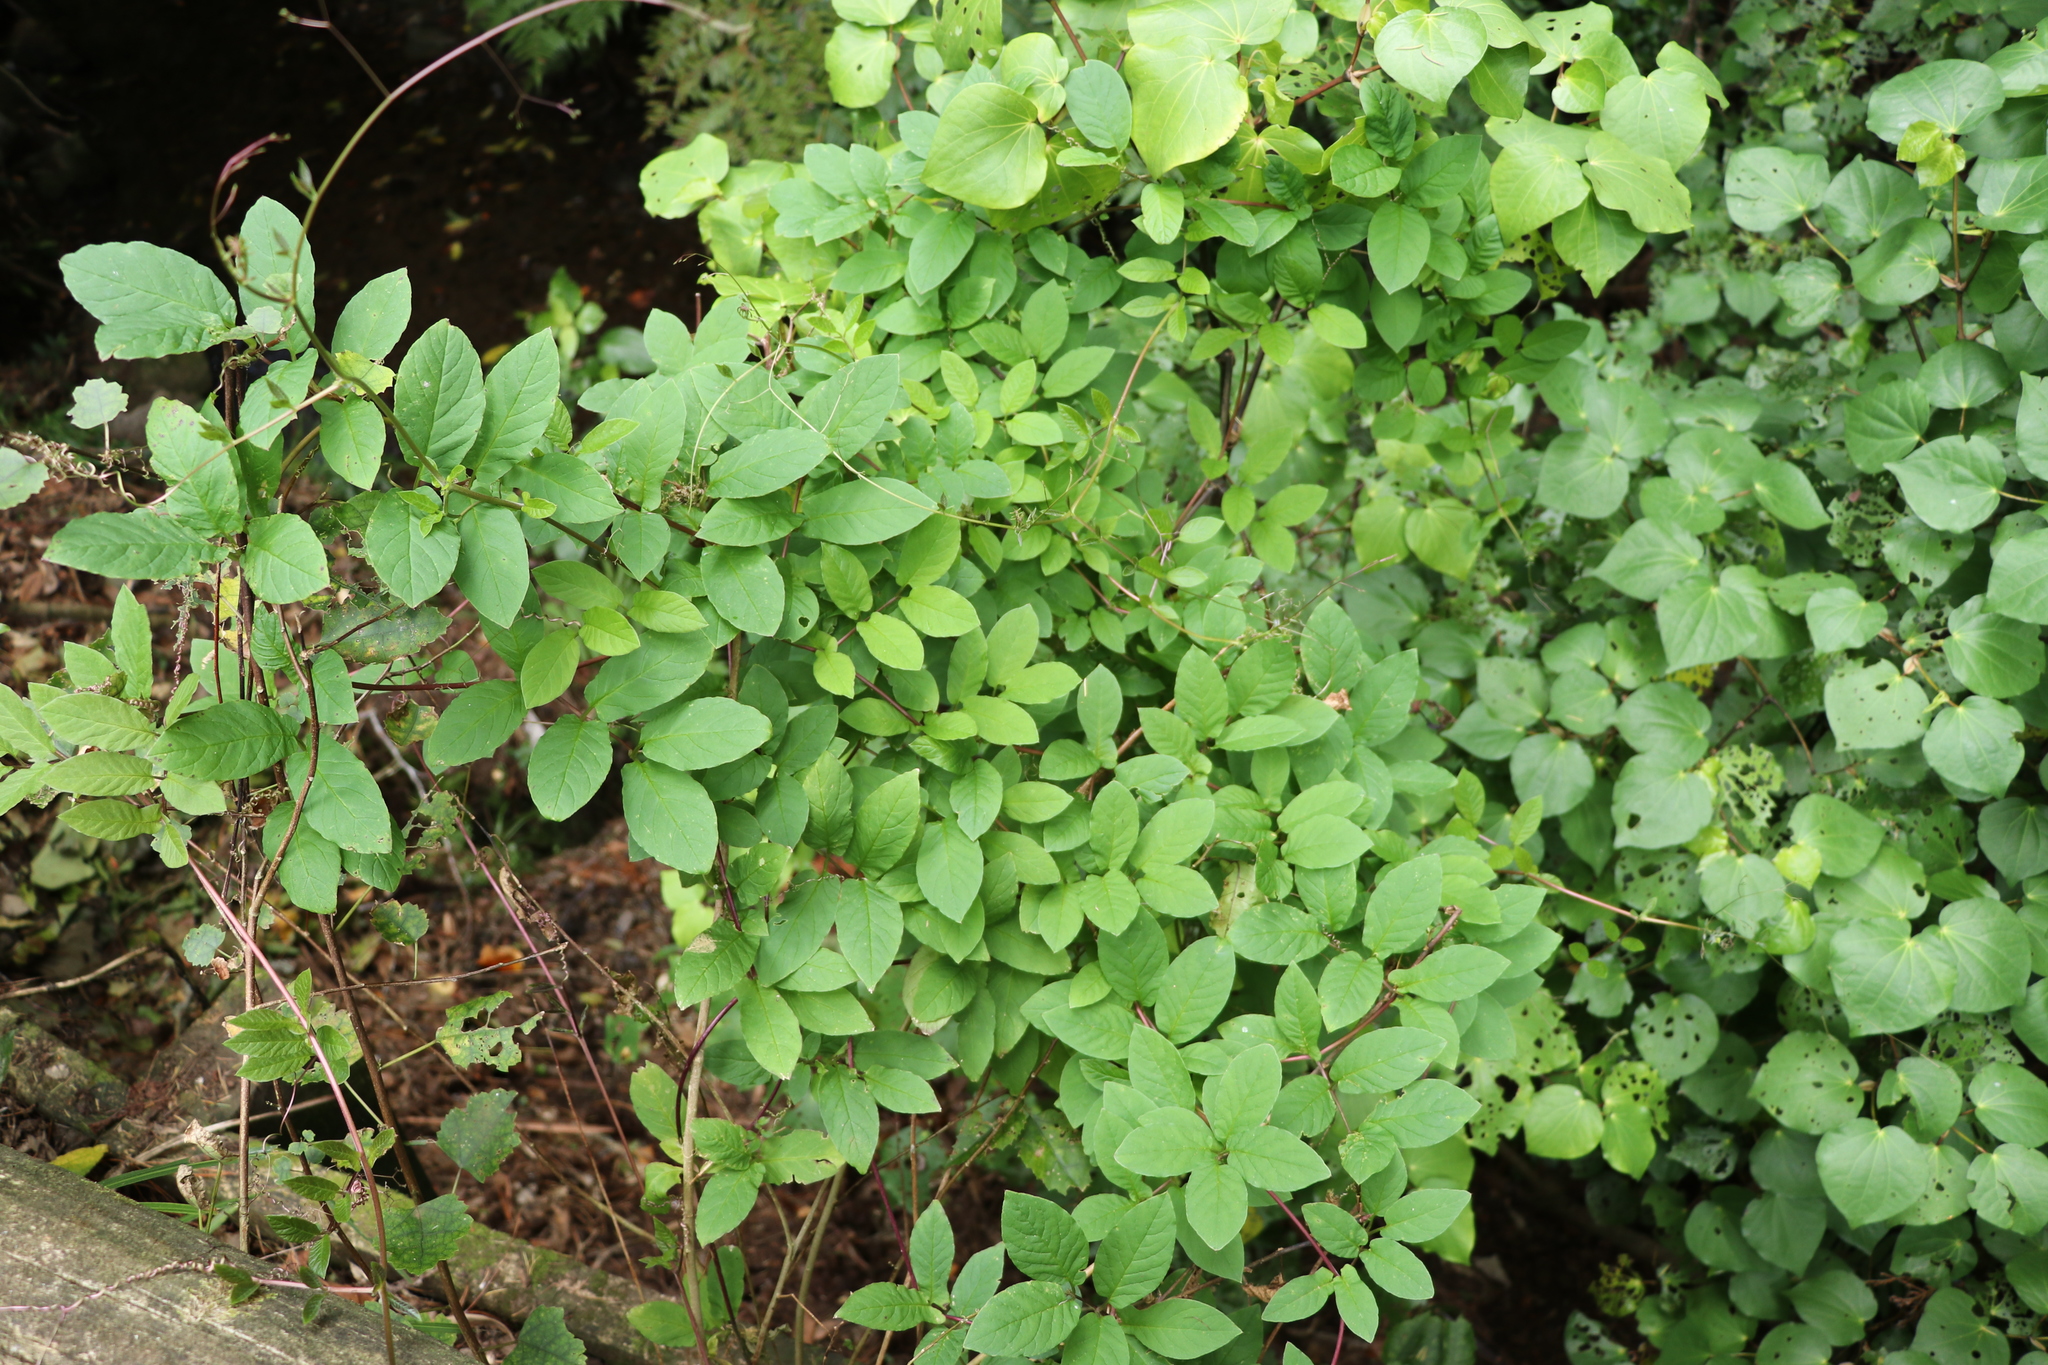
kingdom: Plantae
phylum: Tracheophyta
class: Magnoliopsida
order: Dipsacales
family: Caprifoliaceae
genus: Lonicera
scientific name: Lonicera japonica
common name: Japanese honeysuckle
